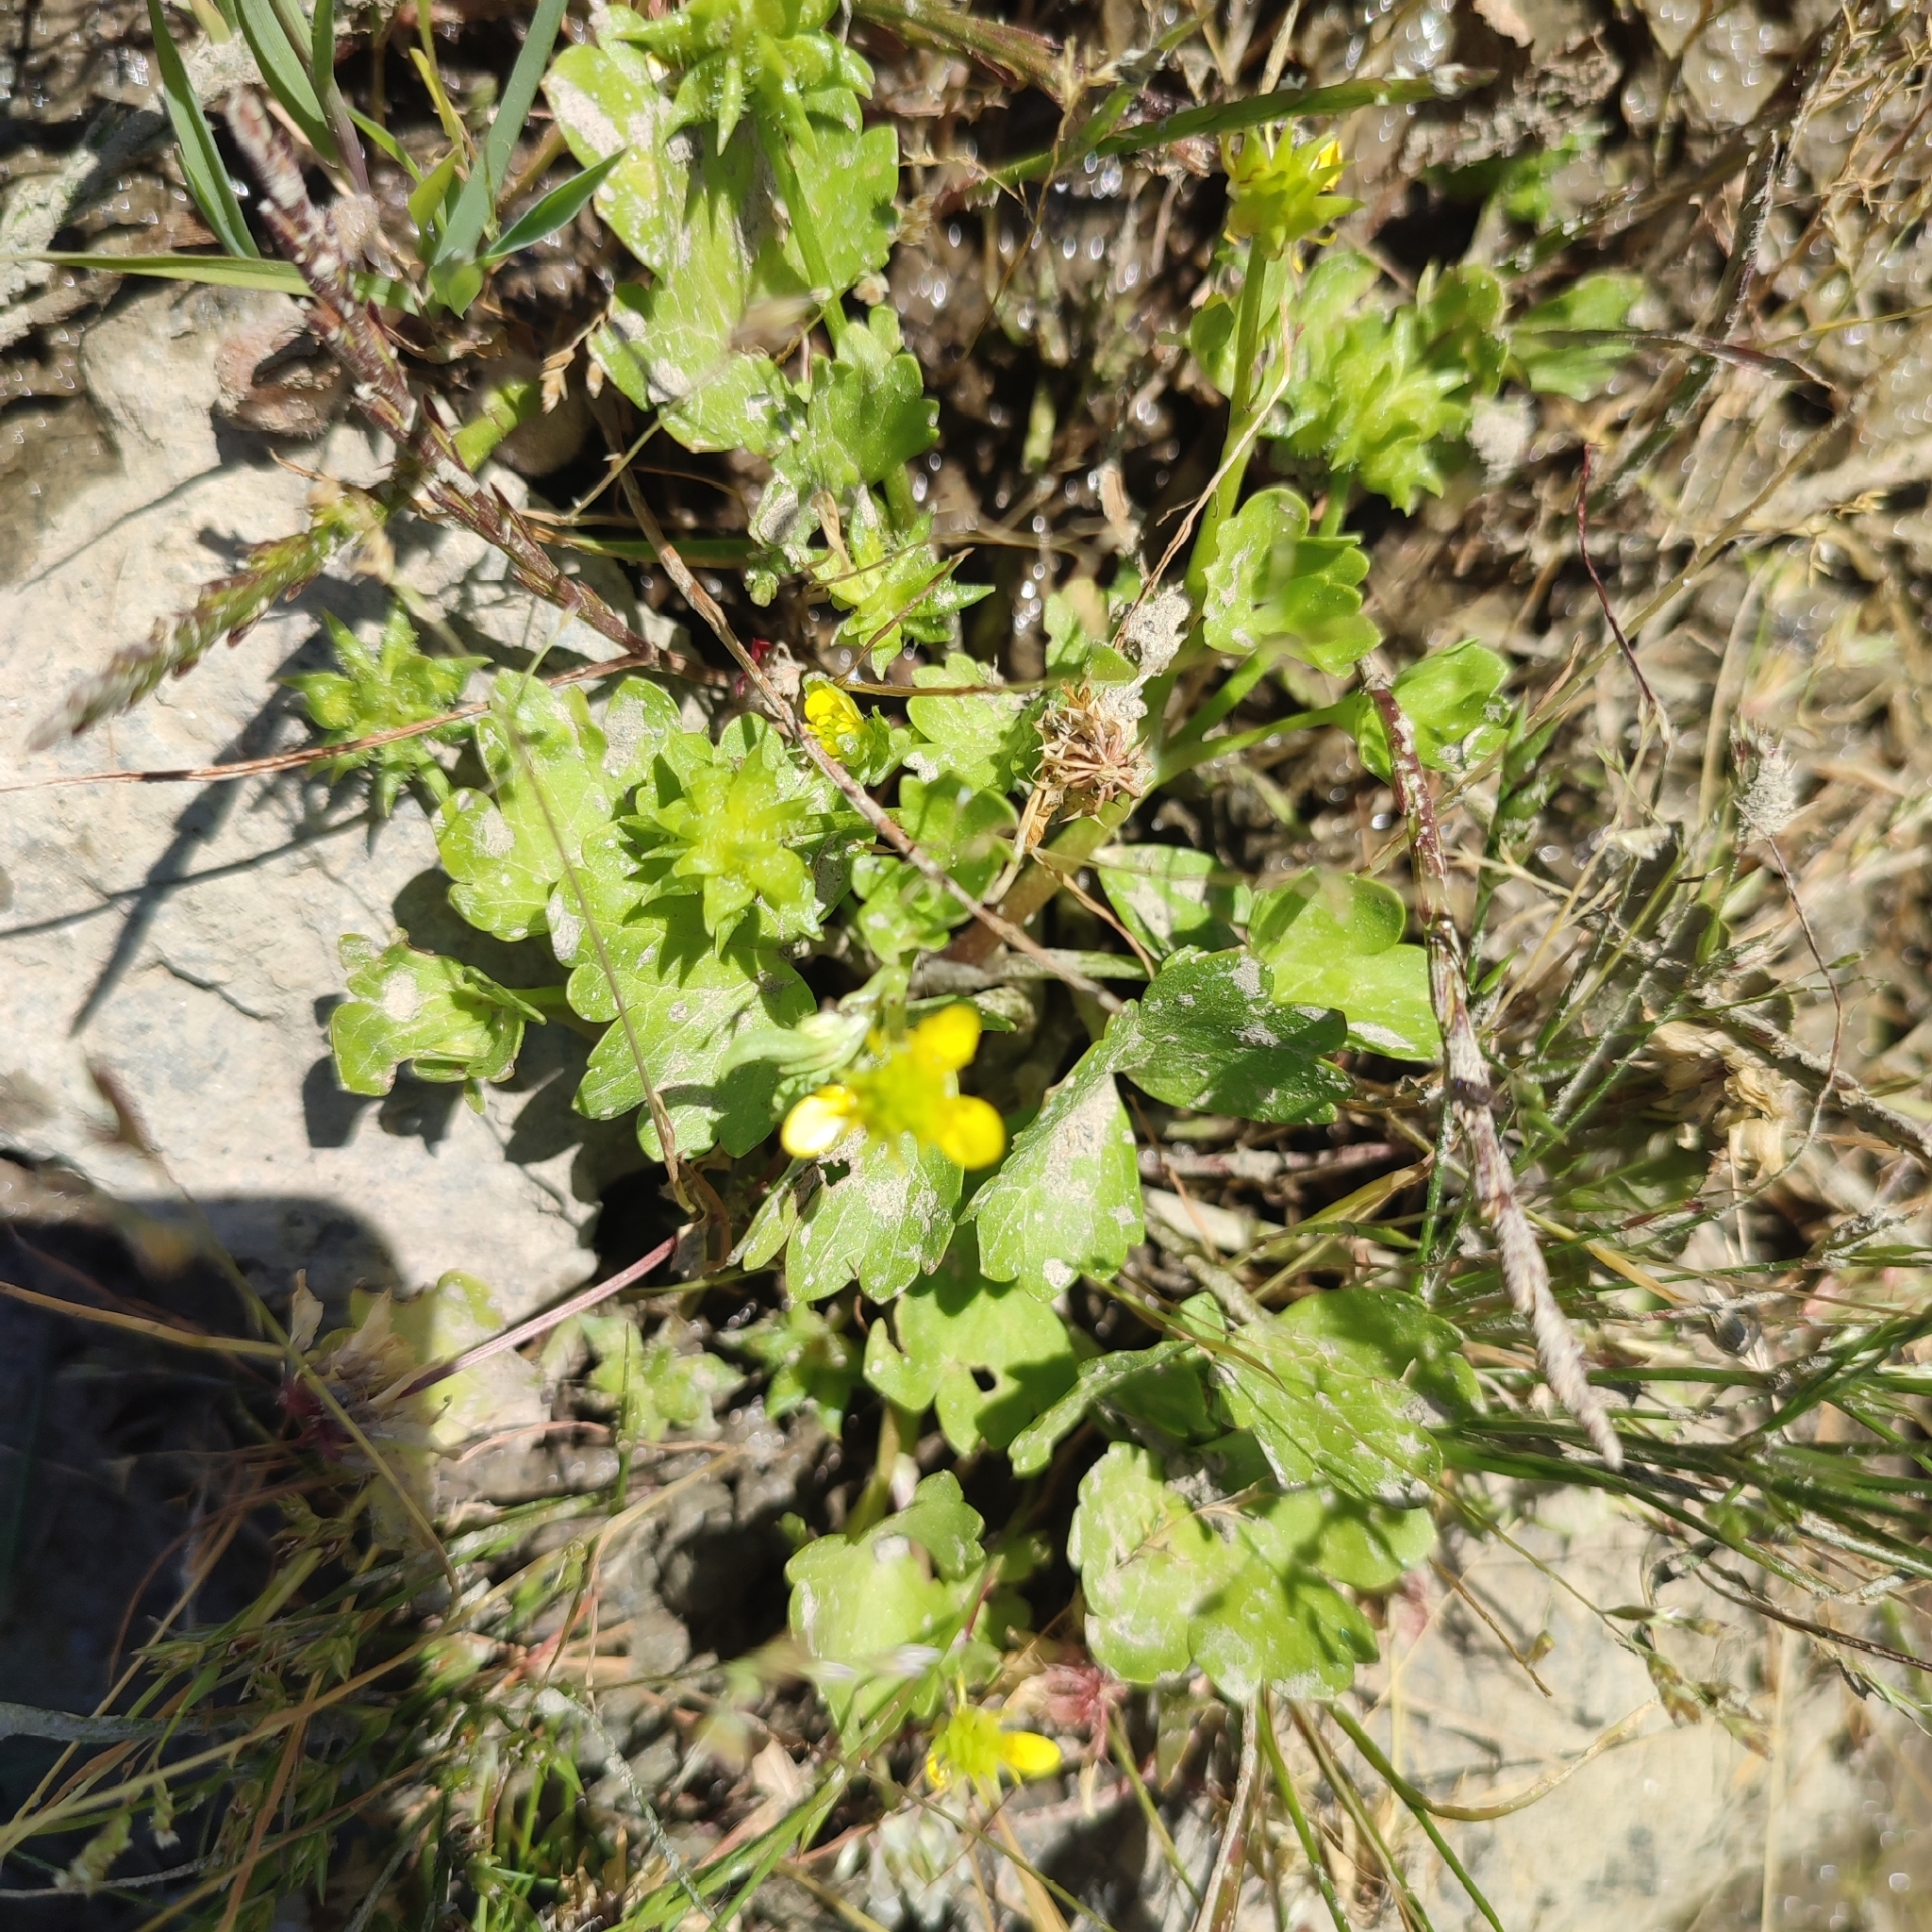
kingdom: Plantae
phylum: Tracheophyta
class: Magnoliopsida
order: Ranunculales
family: Ranunculaceae
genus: Ranunculus
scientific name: Ranunculus muricatus
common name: Rough-fruited buttercup
